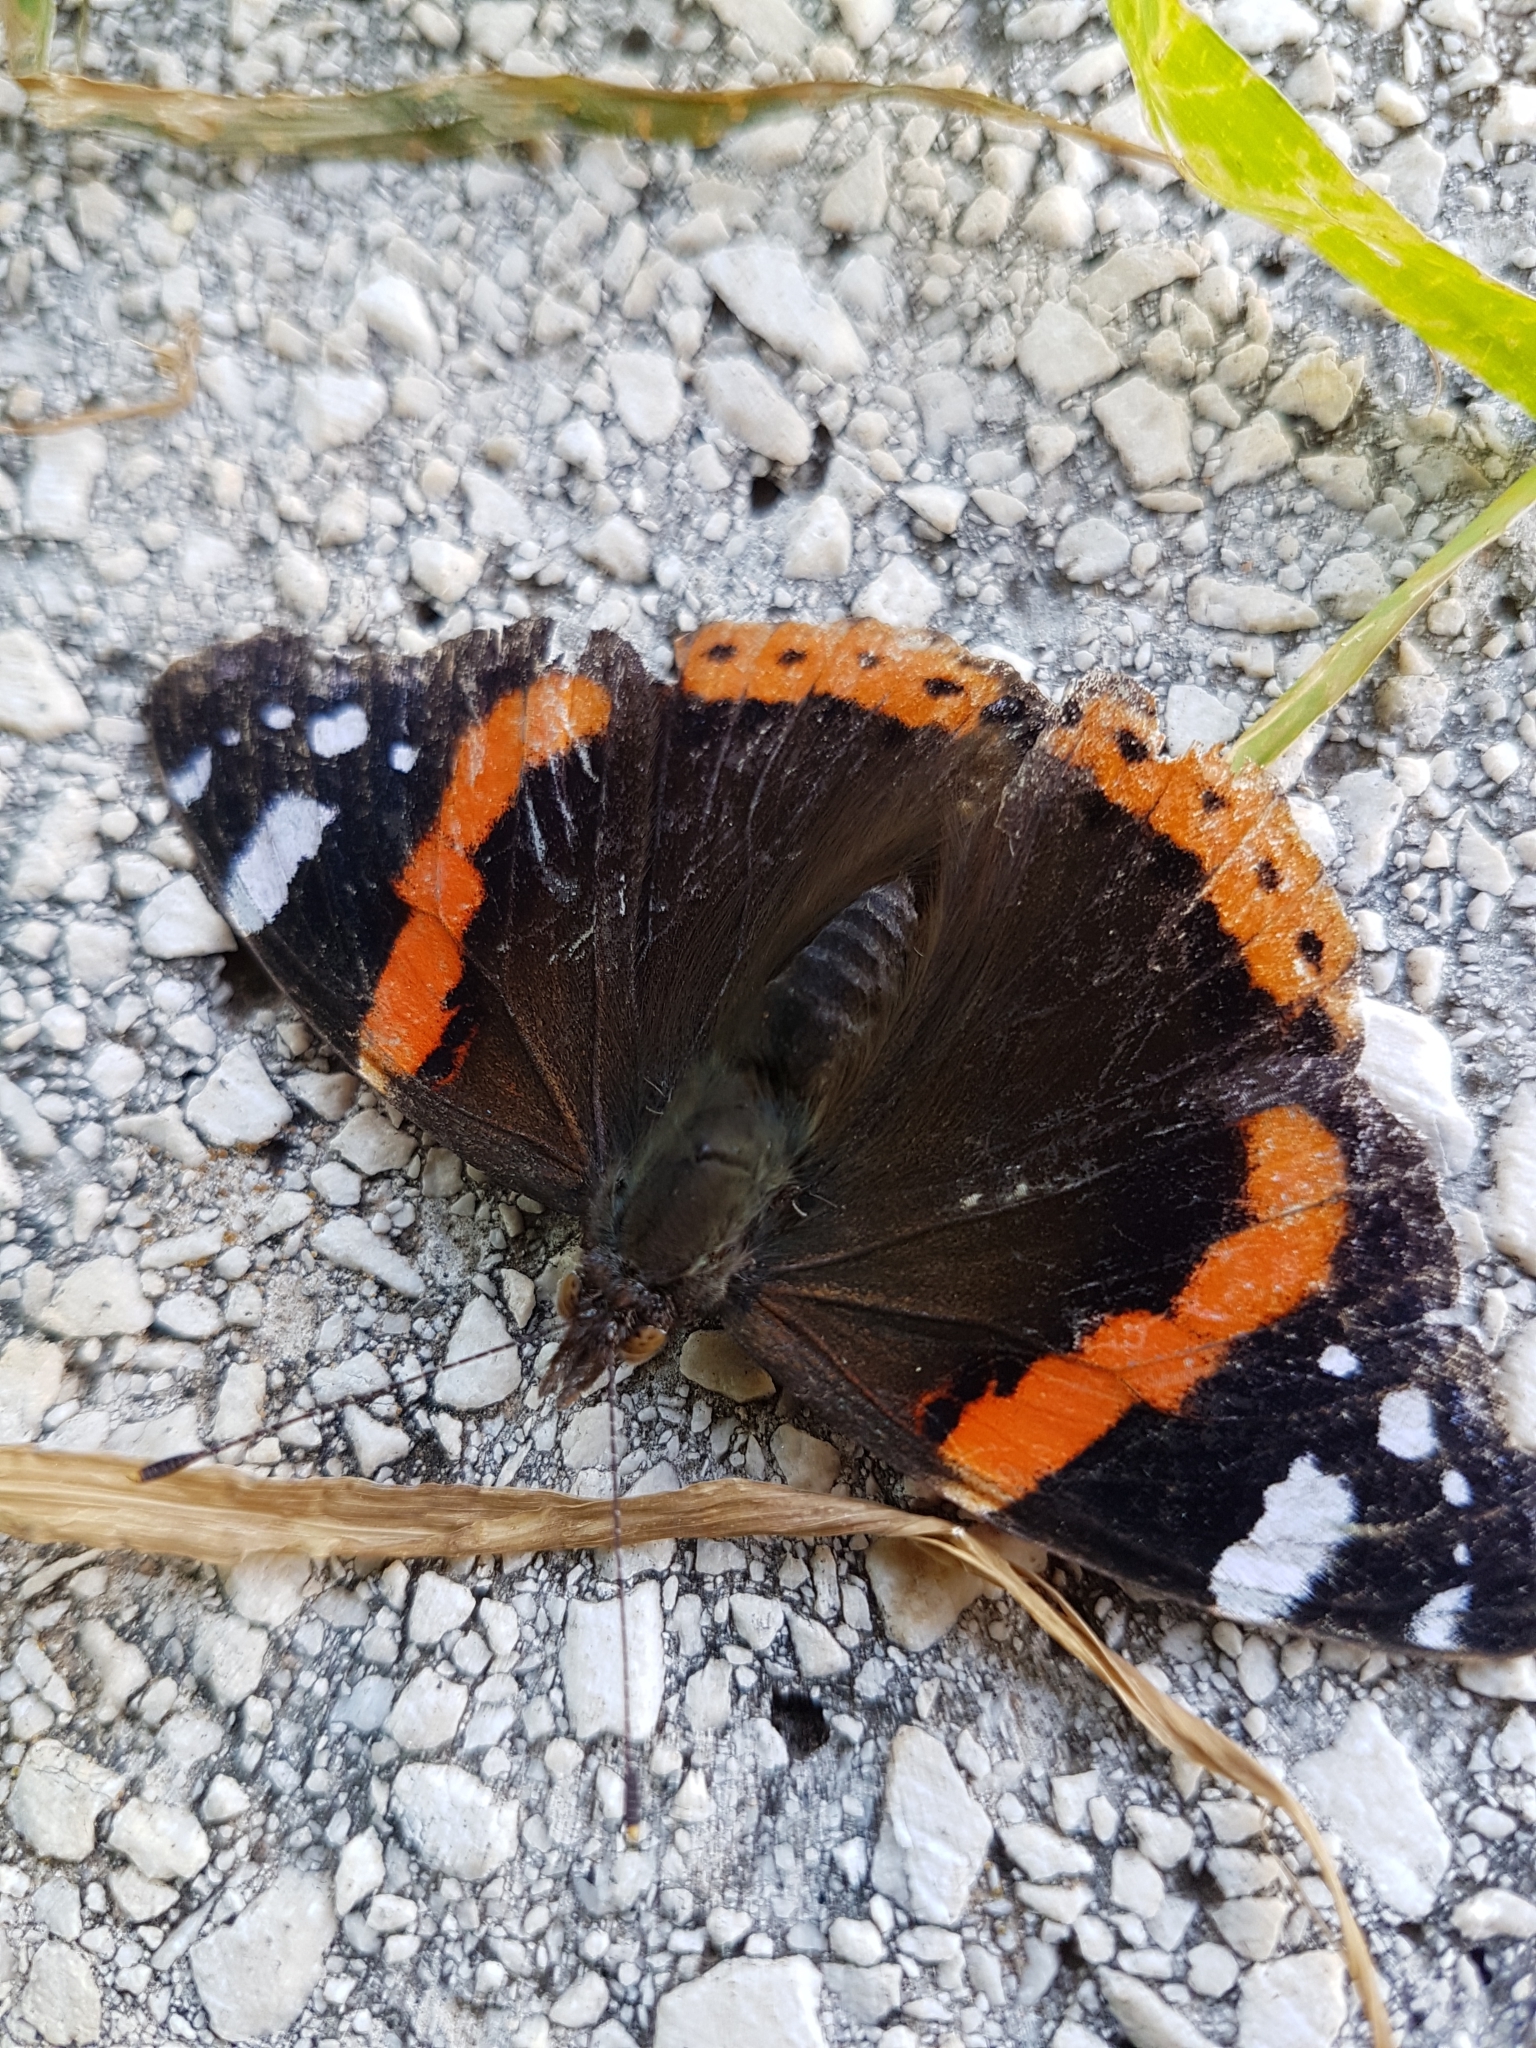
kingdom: Animalia
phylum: Arthropoda
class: Insecta
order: Lepidoptera
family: Nymphalidae
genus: Vanessa
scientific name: Vanessa atalanta
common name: Red admiral
